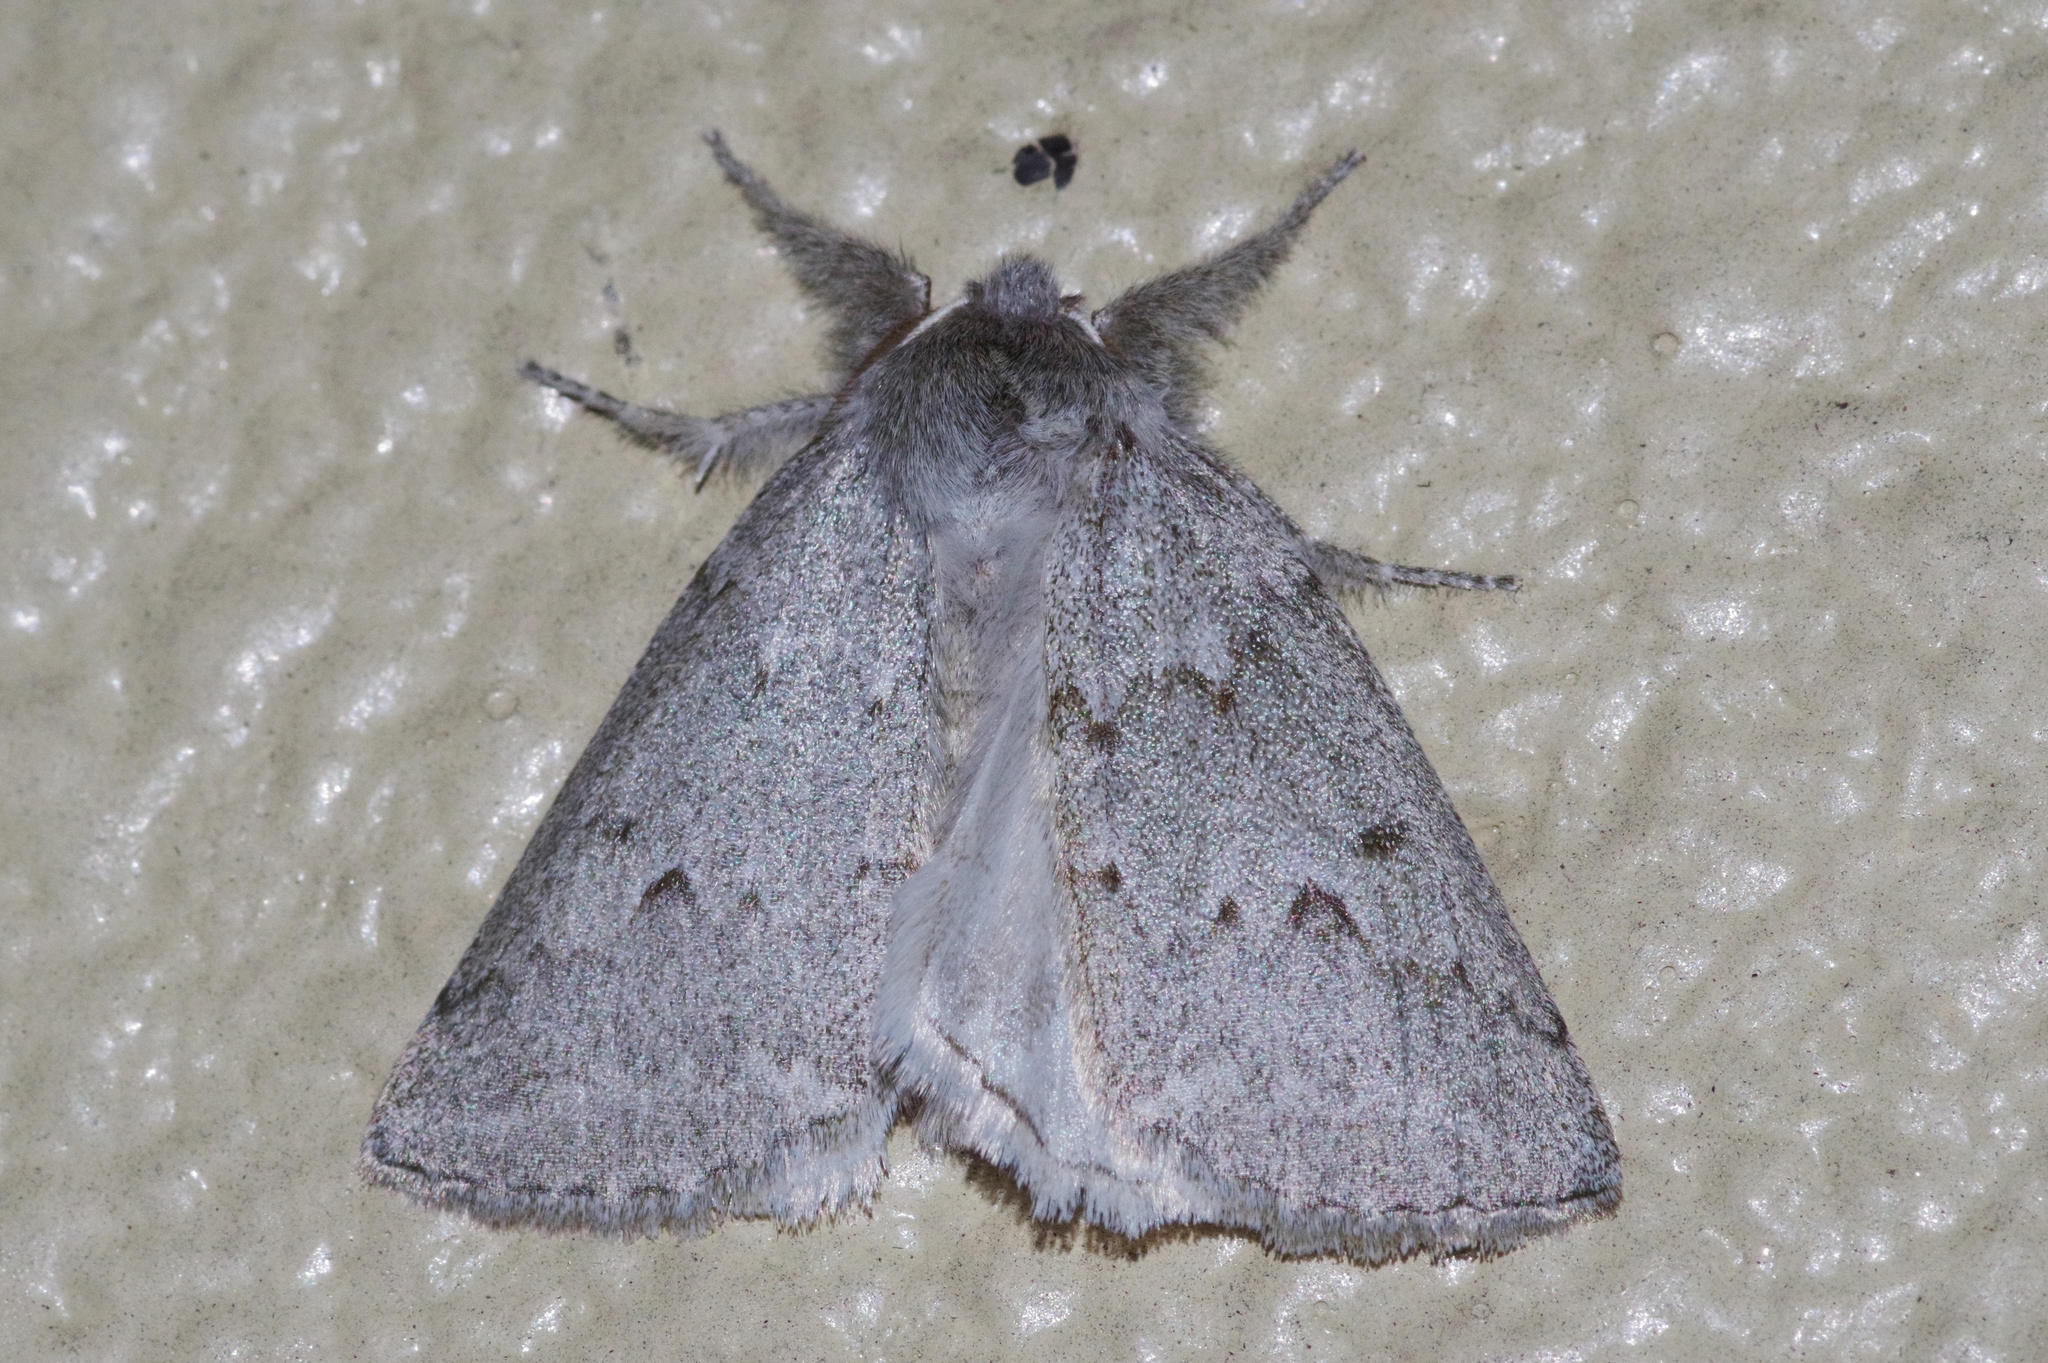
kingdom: Animalia
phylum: Arthropoda
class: Insecta
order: Lepidoptera
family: Geometridae
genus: Planociampa
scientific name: Planociampa antipala
